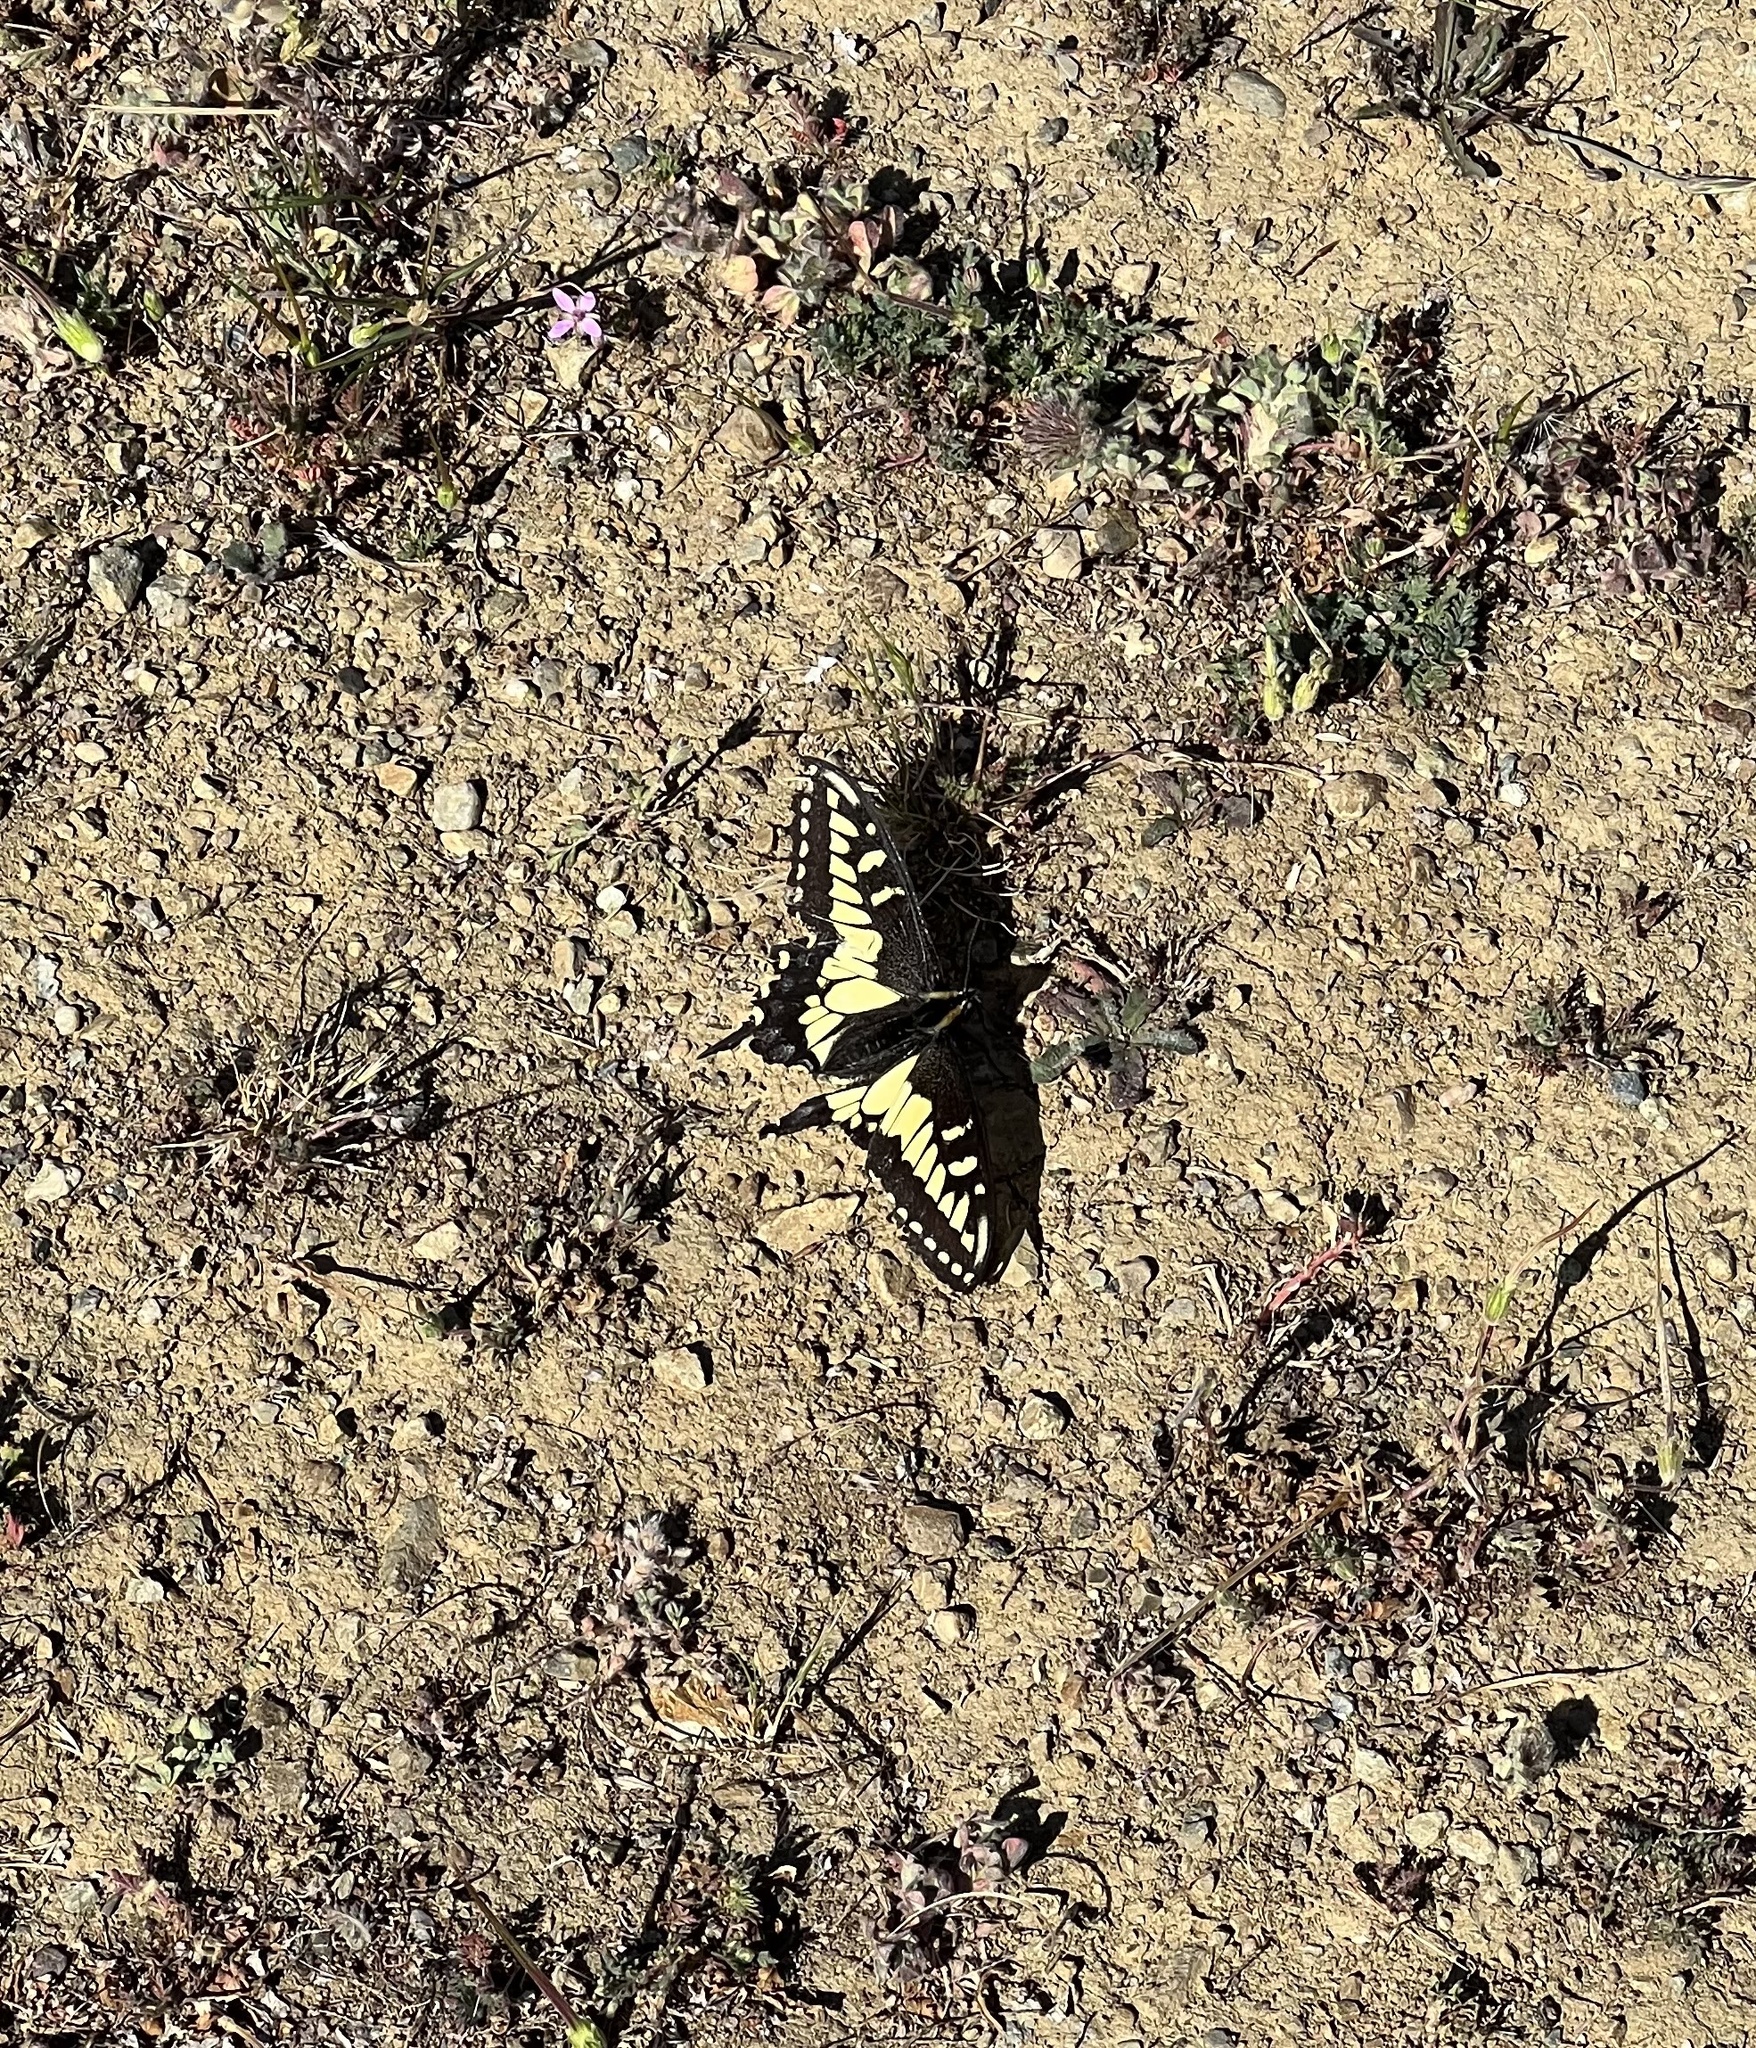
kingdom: Animalia
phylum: Arthropoda
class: Insecta
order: Lepidoptera
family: Papilionidae
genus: Papilio
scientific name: Papilio zelicaon
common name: Anise swallowtail
